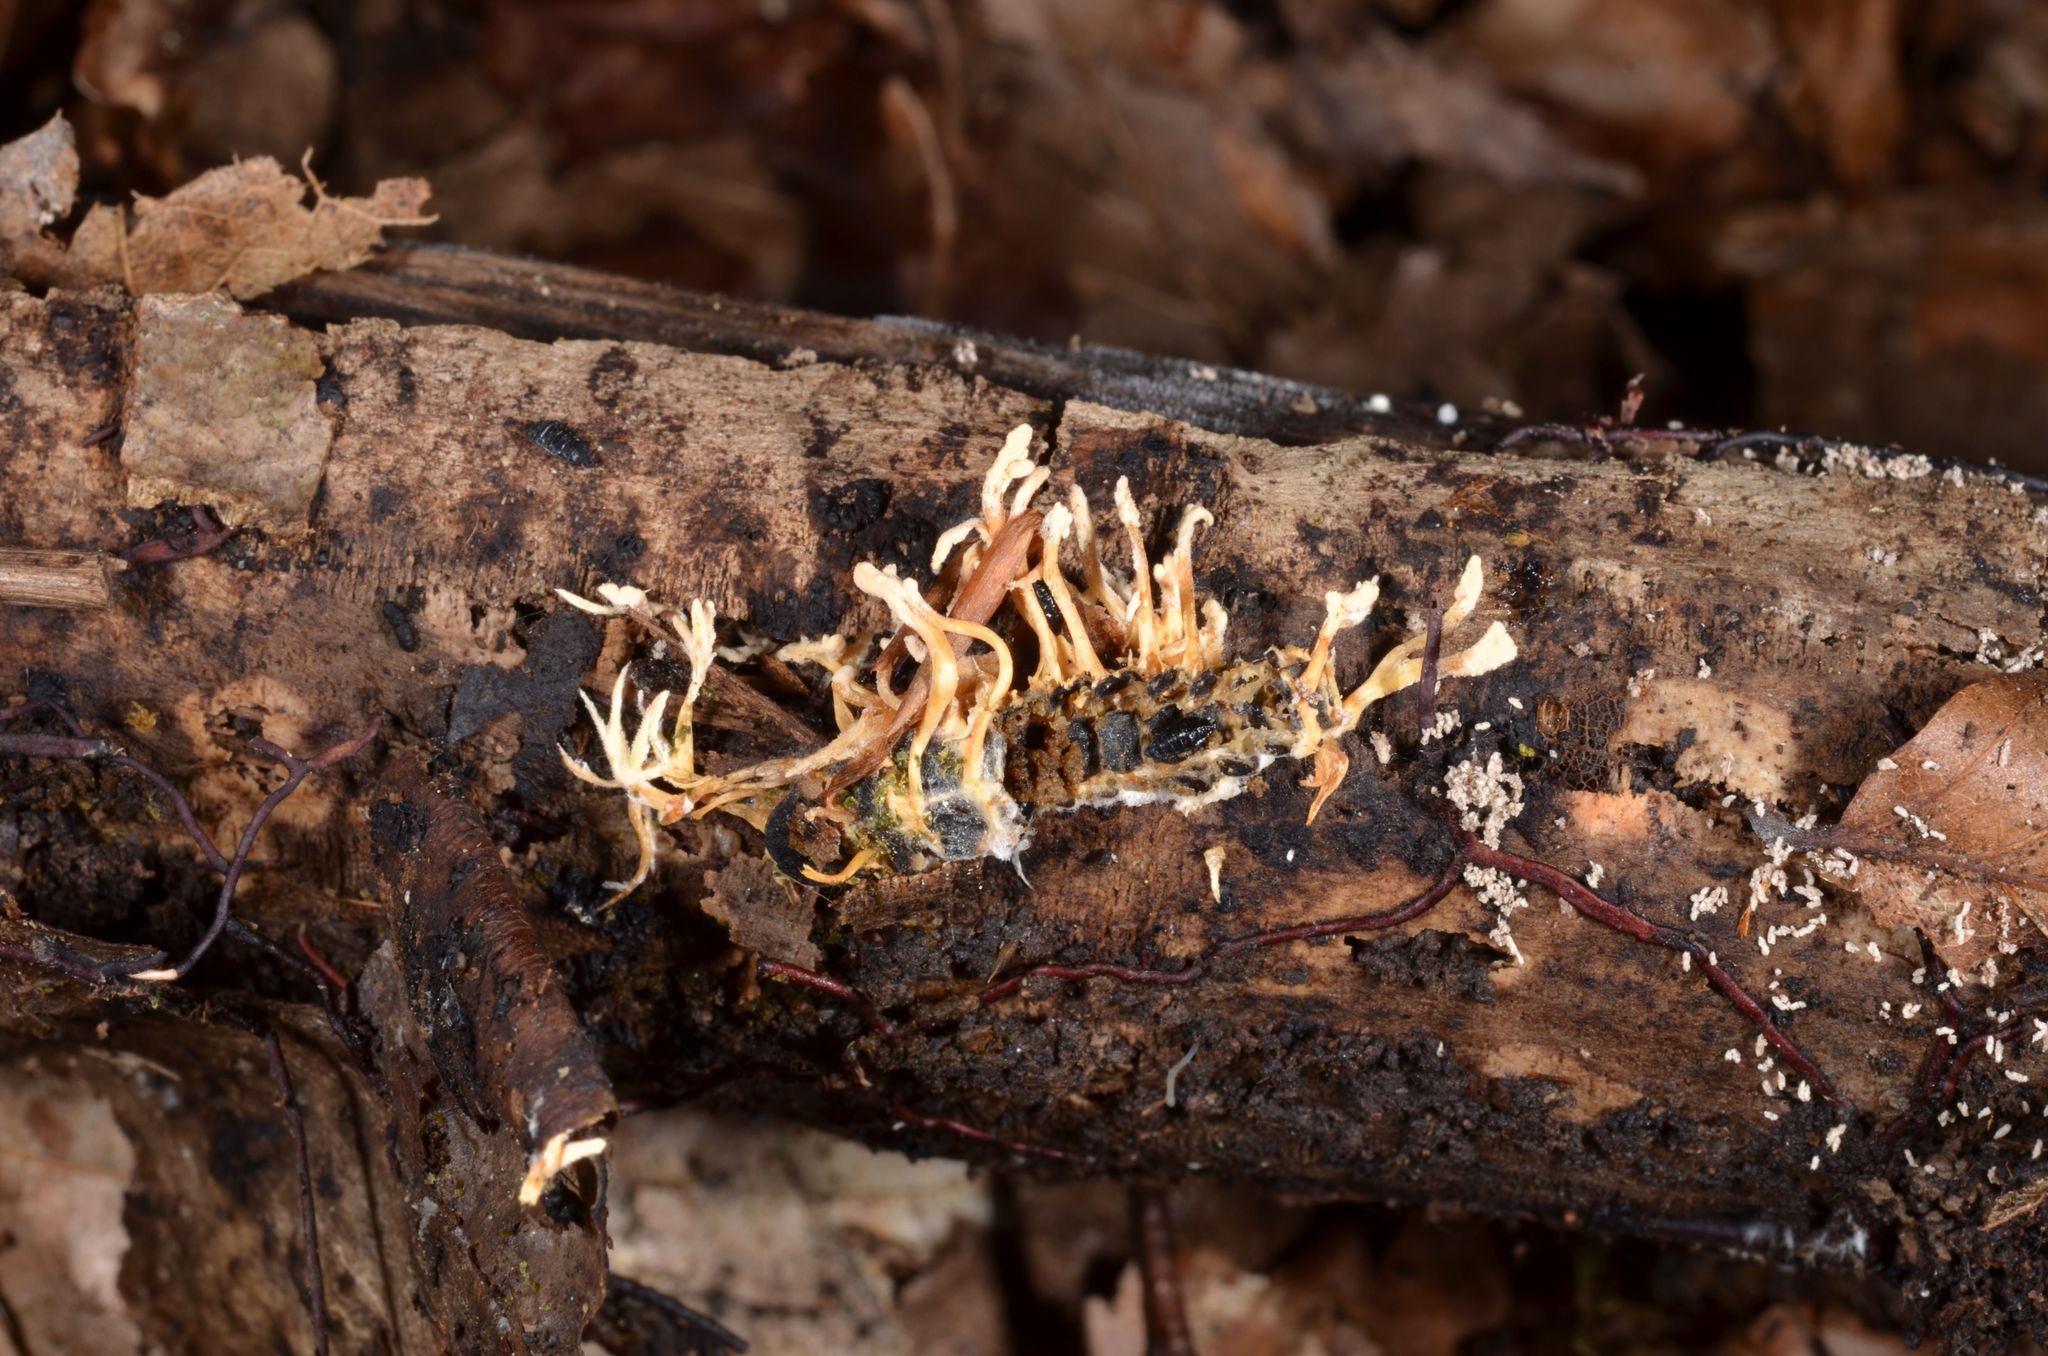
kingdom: Fungi
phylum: Ascomycota
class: Sordariomycetes
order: Hypocreales
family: Cordycipitaceae
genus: Cordyceps
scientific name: Cordyceps coleopterorum
